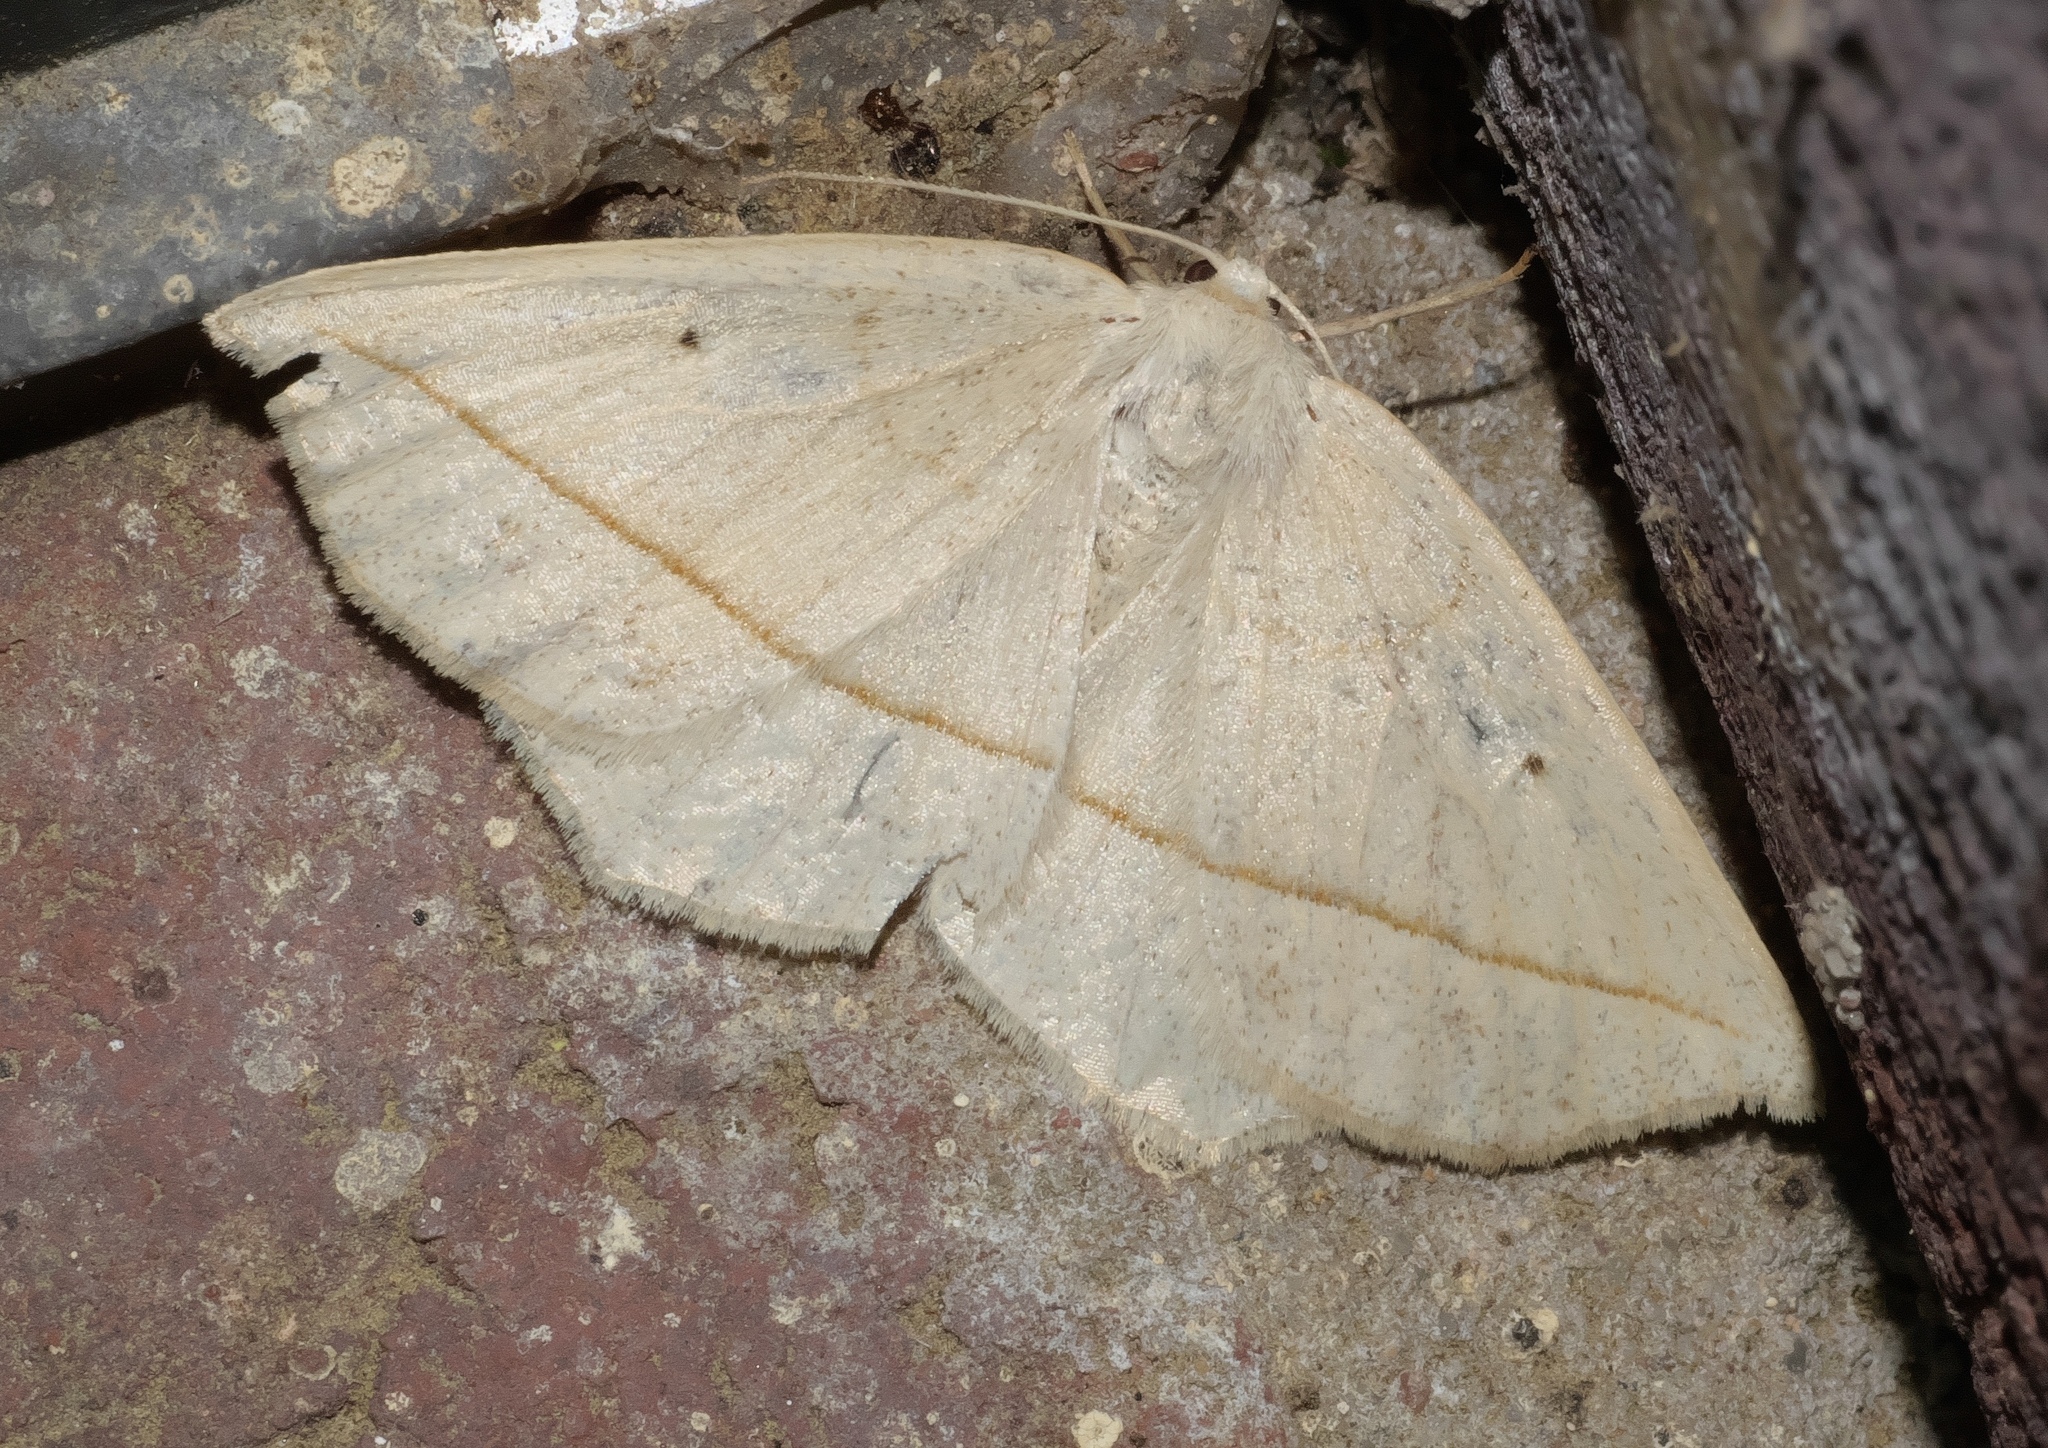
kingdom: Animalia
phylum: Arthropoda
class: Insecta
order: Lepidoptera
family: Geometridae
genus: Eusarca
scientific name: Eusarca confusaria
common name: Confused eusarca
